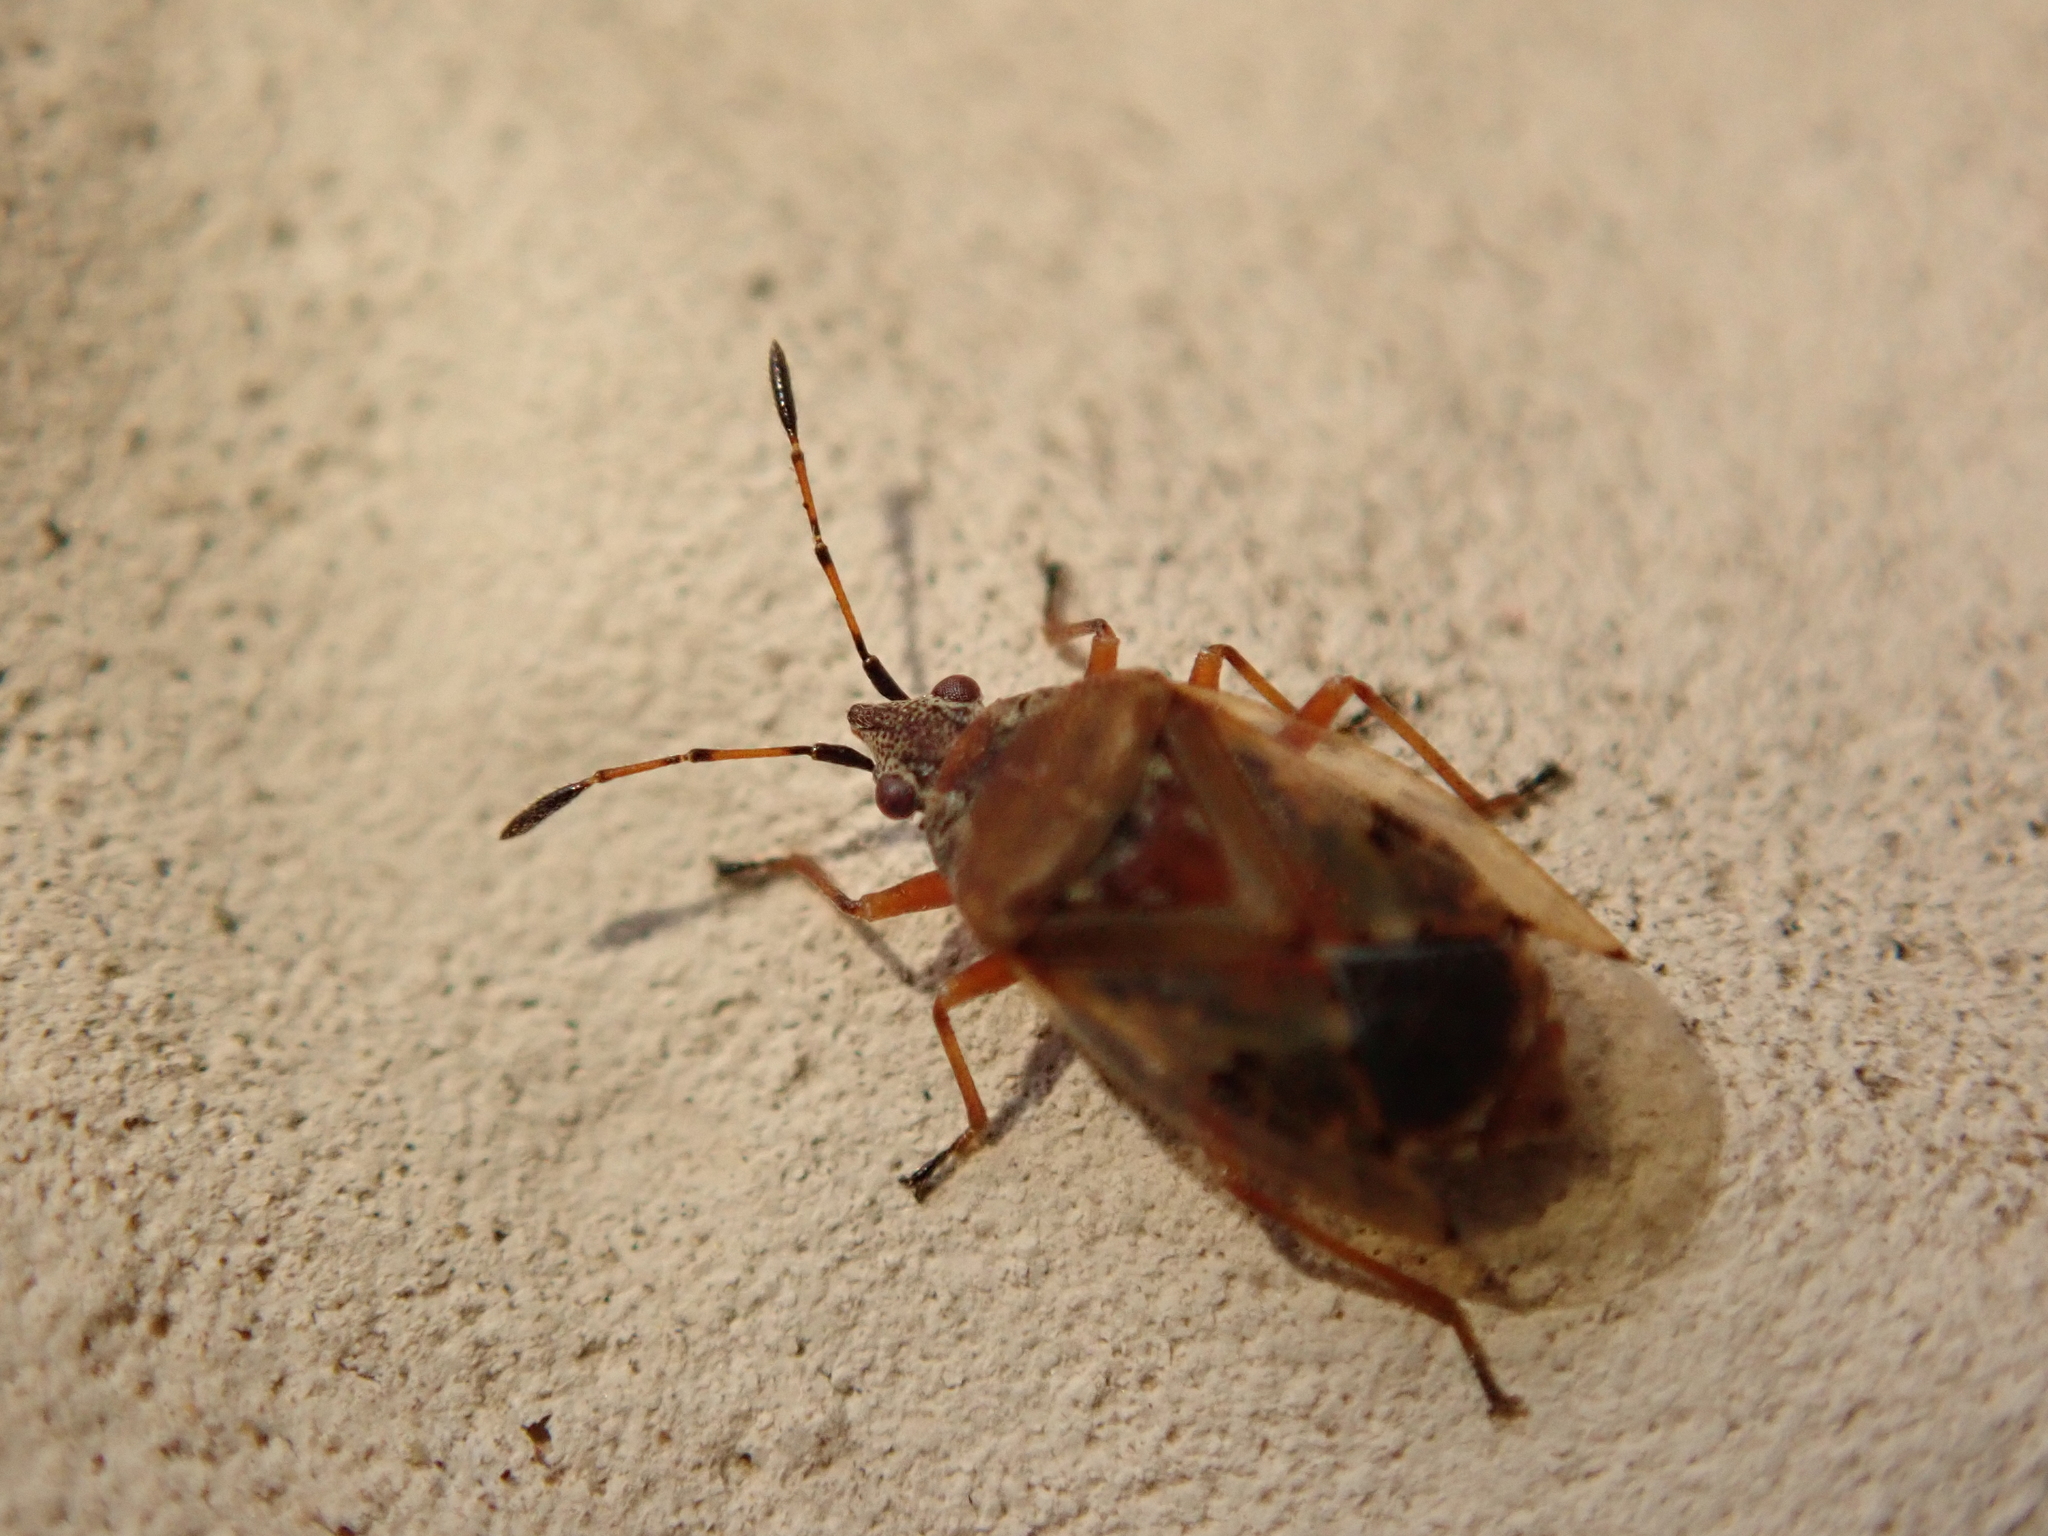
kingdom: Animalia
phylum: Arthropoda
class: Insecta
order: Hemiptera
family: Lygaeidae
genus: Kleidocerys
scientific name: Kleidocerys resedae
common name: Birch catkin bug
